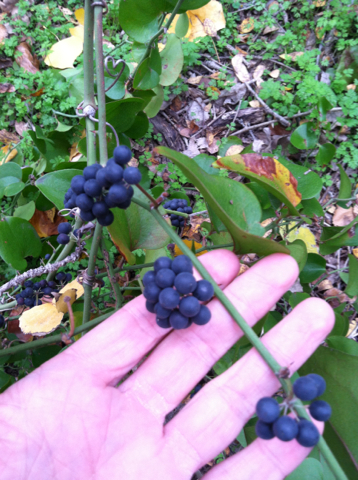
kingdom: Plantae
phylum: Tracheophyta
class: Liliopsida
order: Liliales
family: Smilacaceae
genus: Smilax
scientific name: Smilax bona-nox
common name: Catbrier
